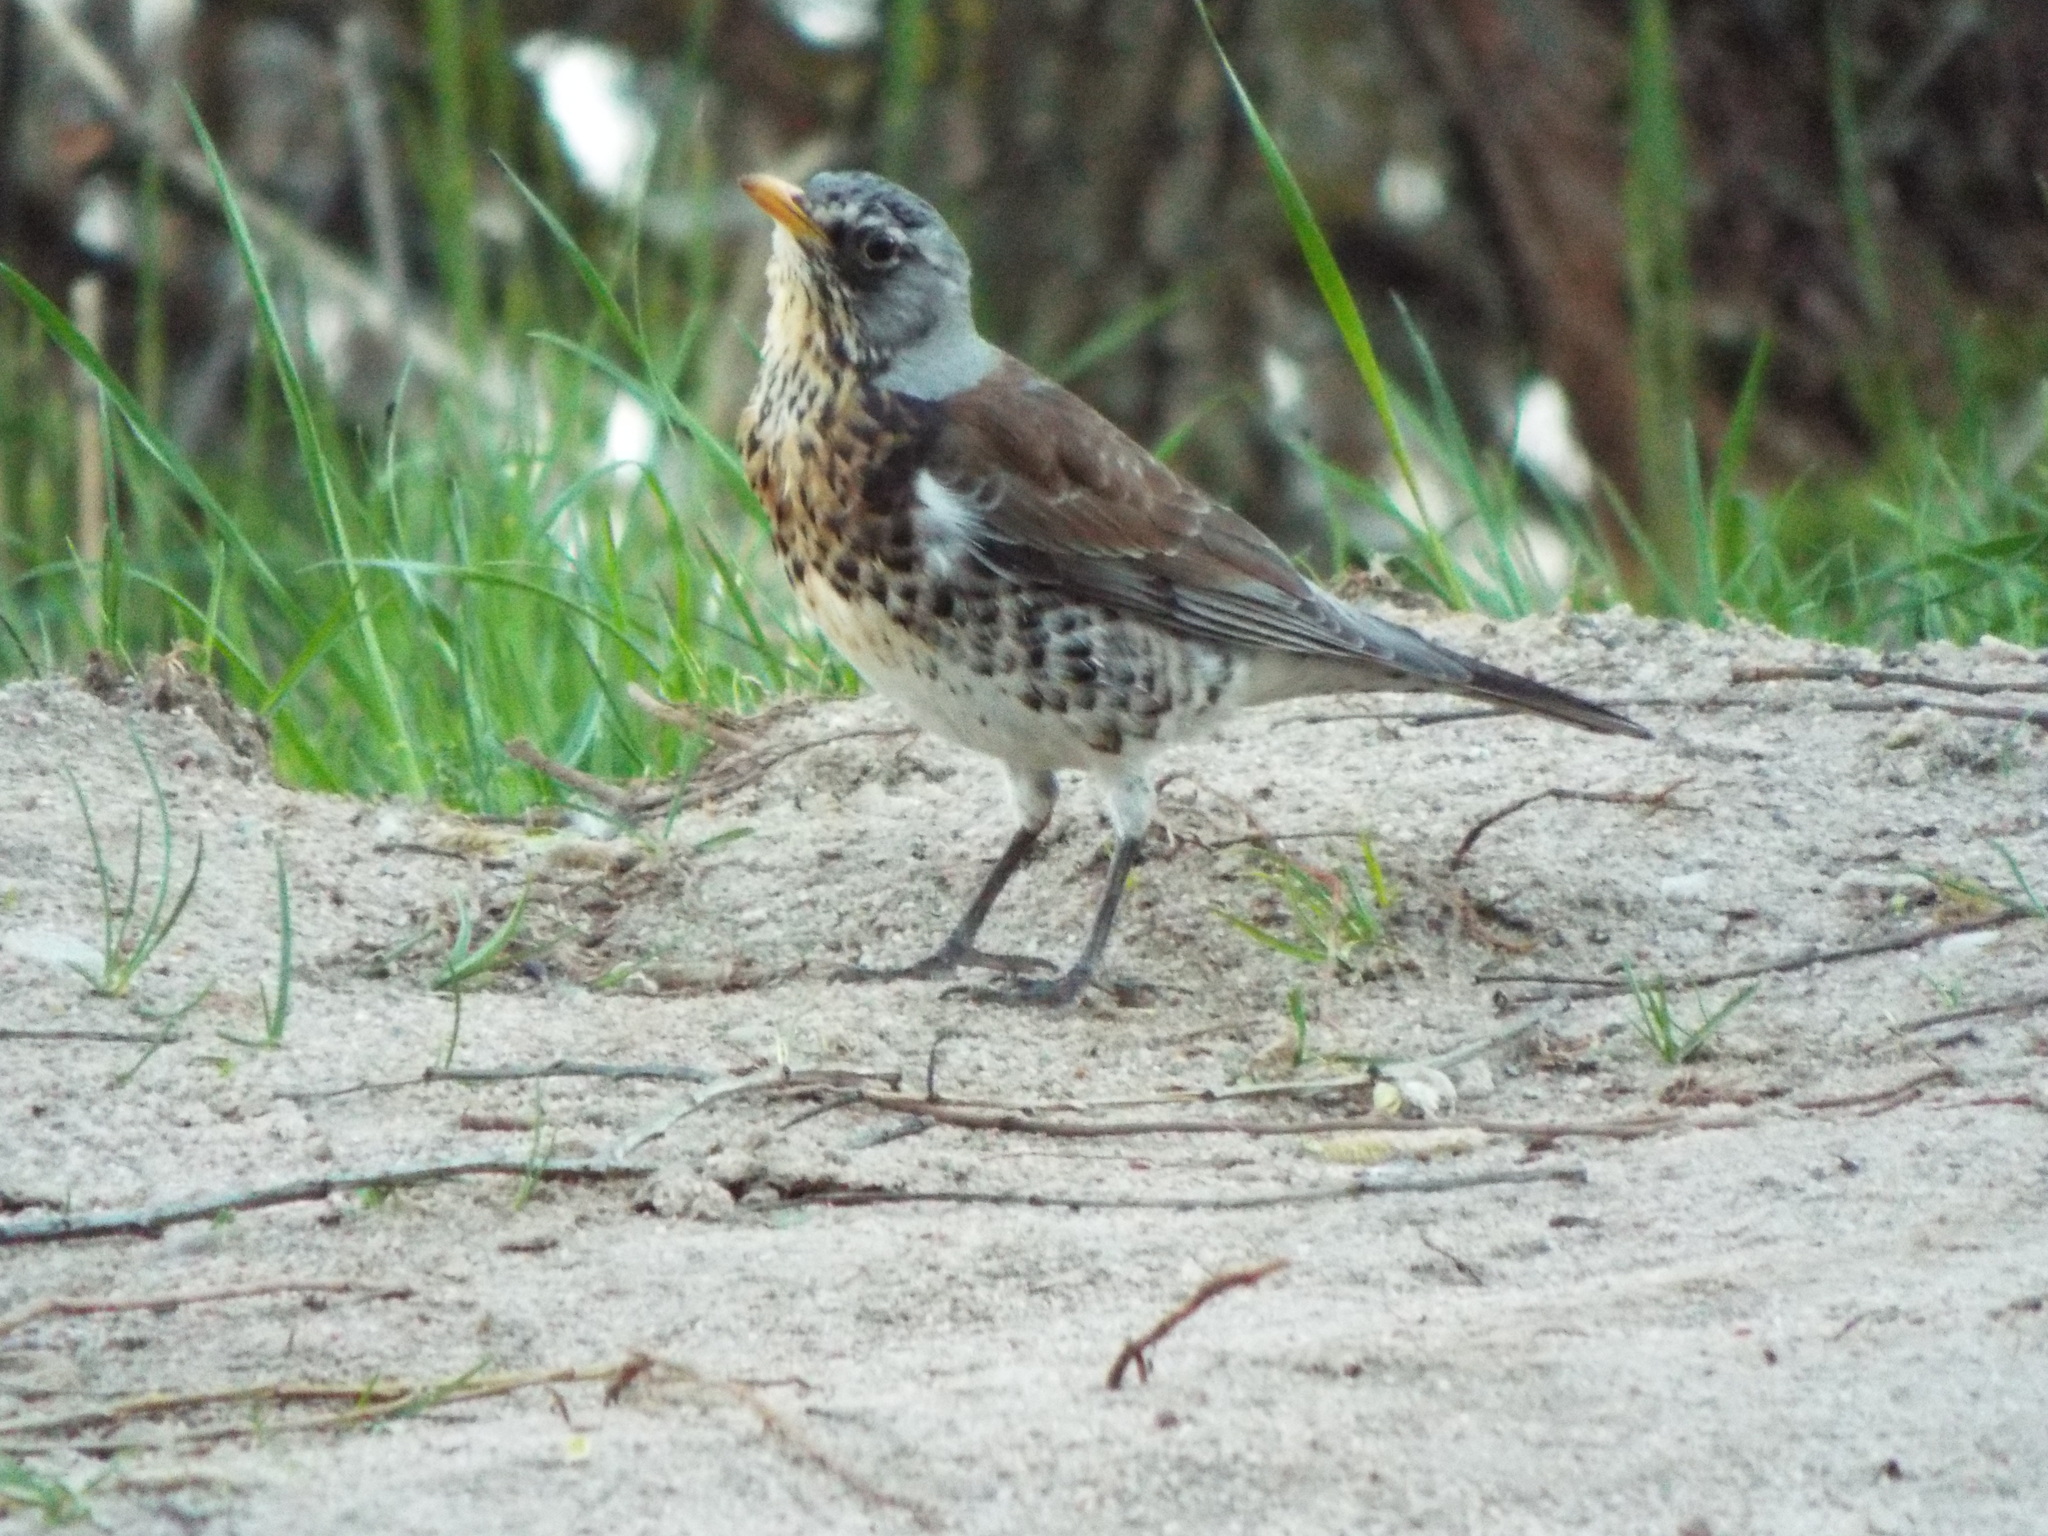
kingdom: Animalia
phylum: Chordata
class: Aves
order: Passeriformes
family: Turdidae
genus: Turdus
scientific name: Turdus pilaris
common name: Fieldfare
